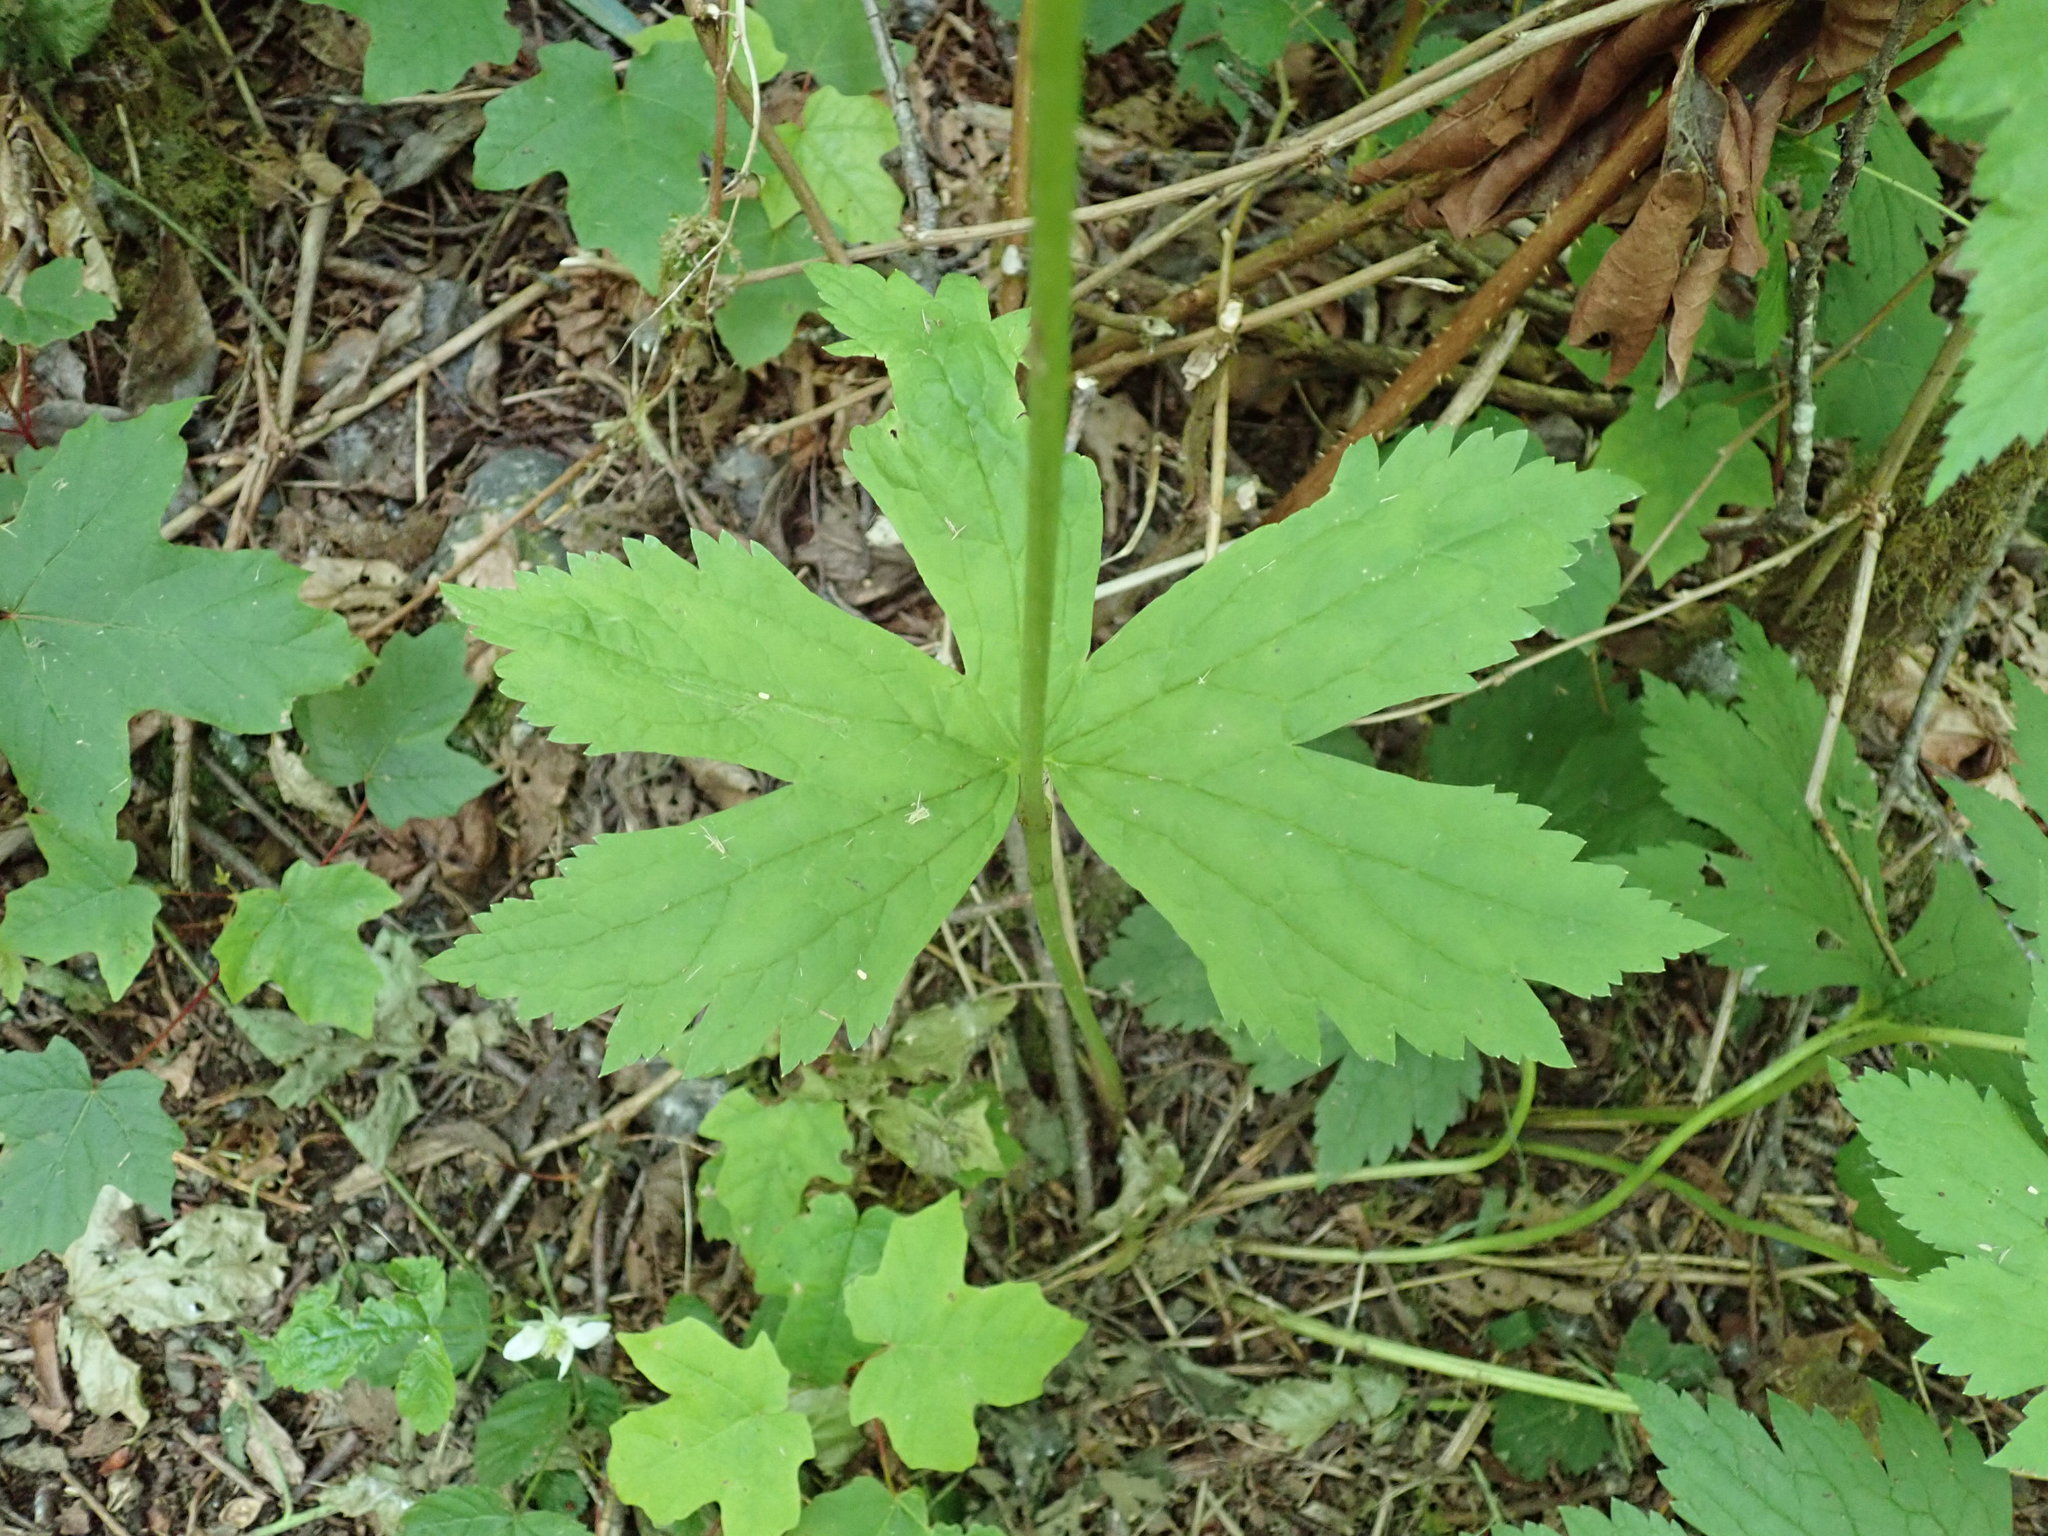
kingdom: Plantae
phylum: Tracheophyta
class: Magnoliopsida
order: Ranunculales
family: Ranunculaceae
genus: Trautvetteria
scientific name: Trautvetteria carolinensis
